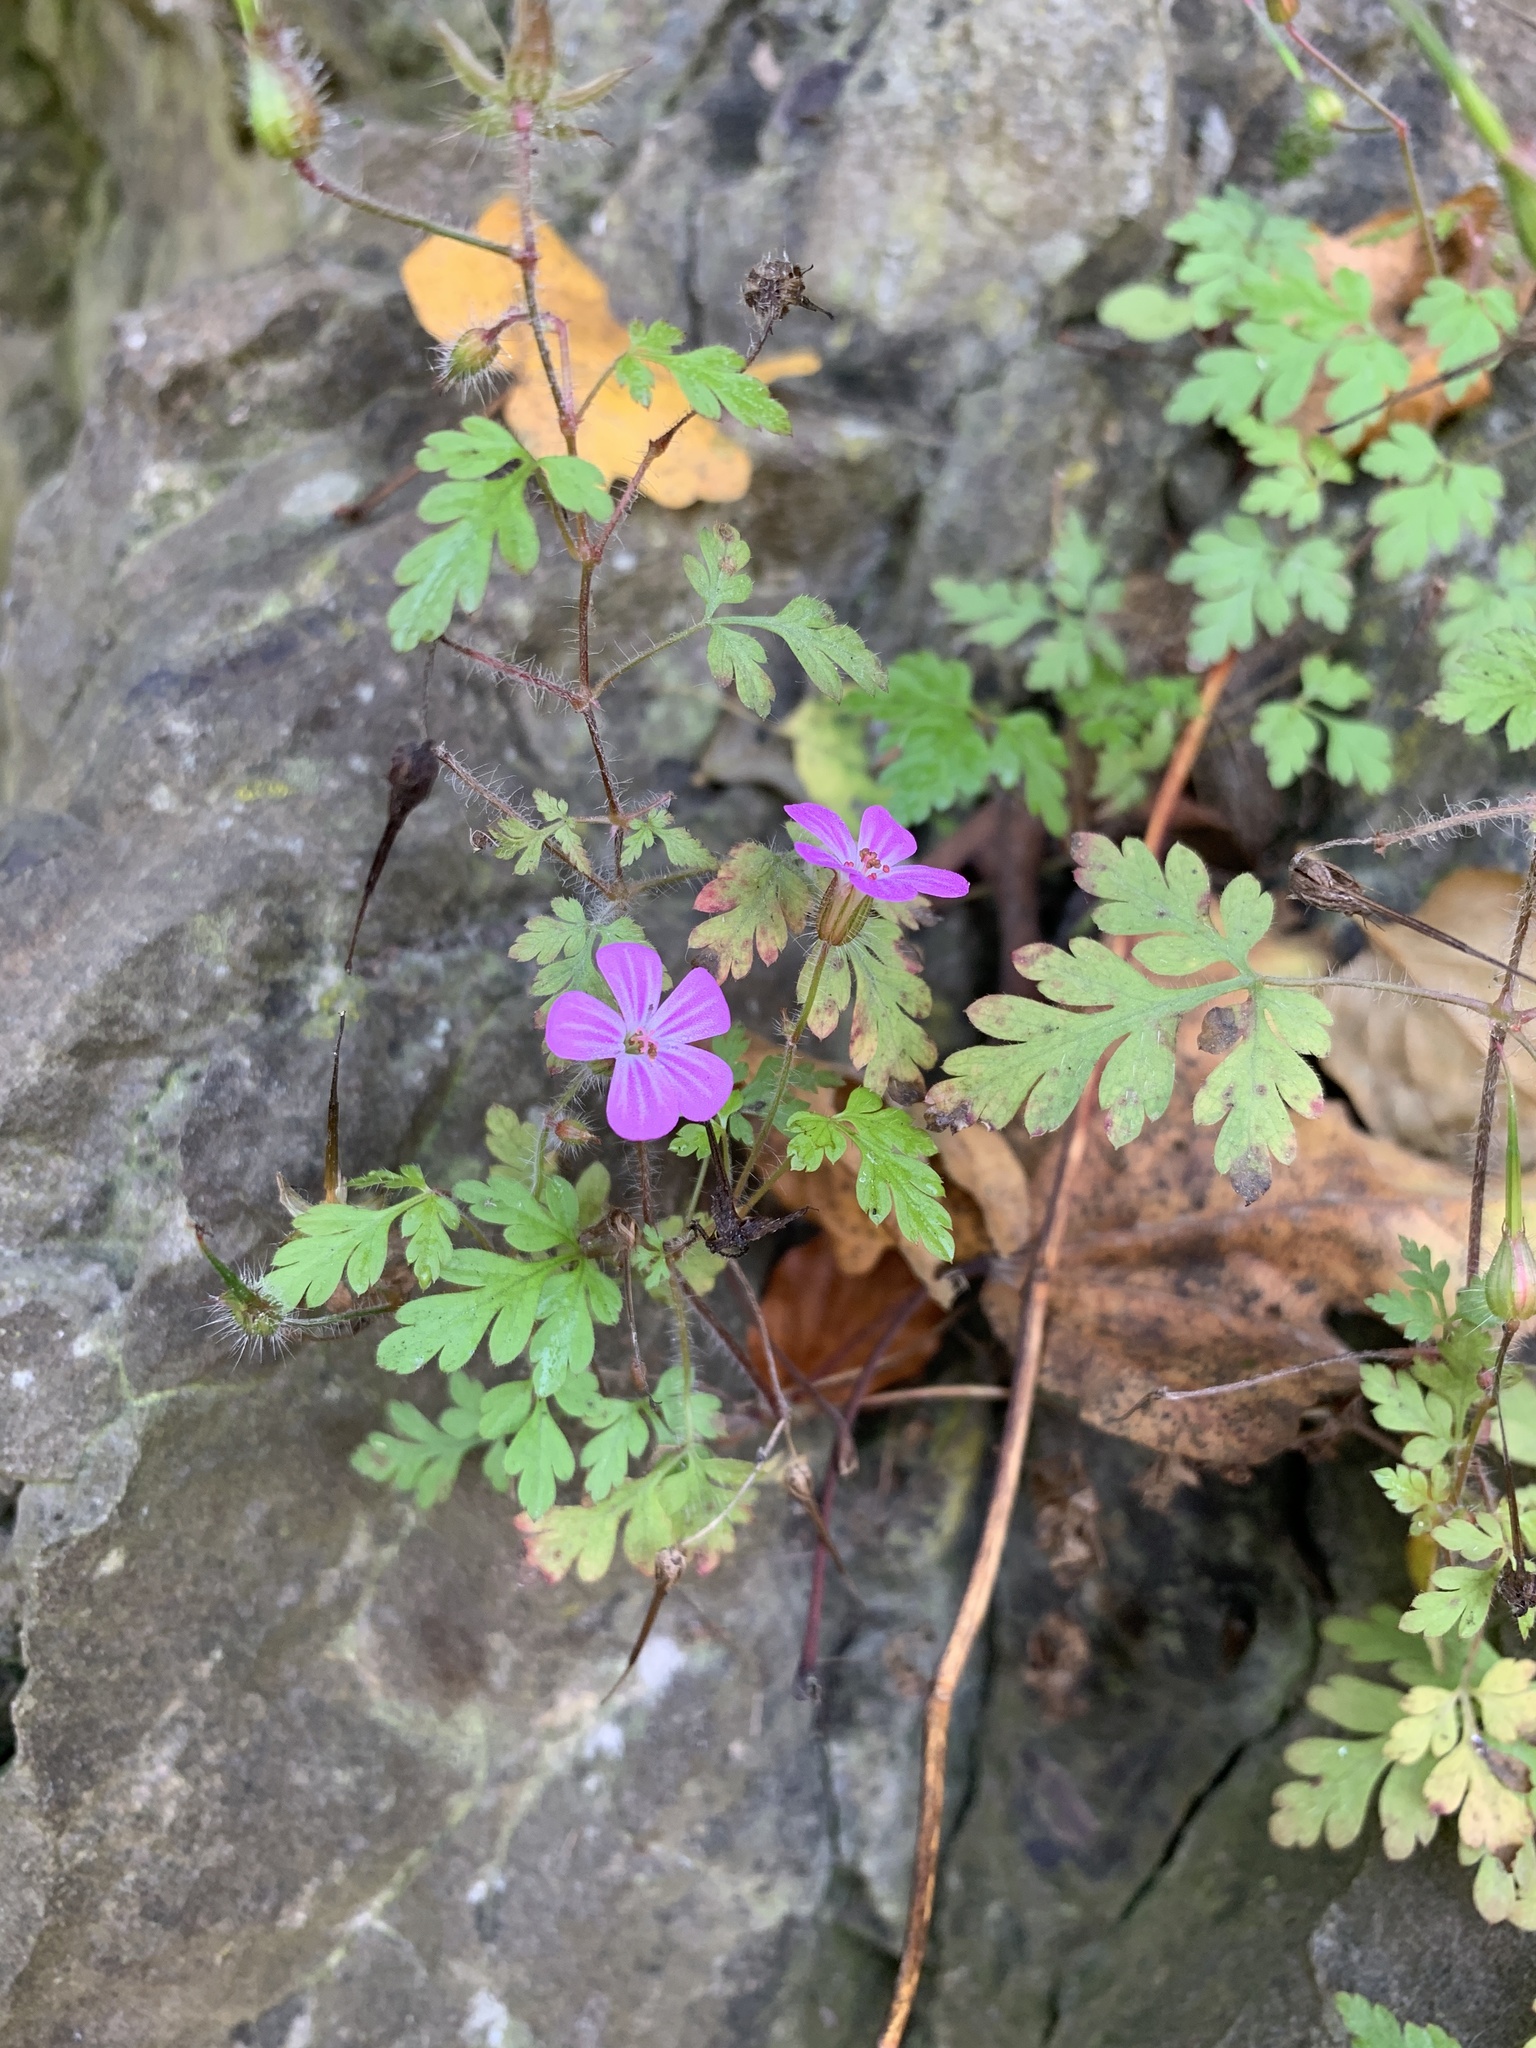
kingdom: Plantae
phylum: Tracheophyta
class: Magnoliopsida
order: Geraniales
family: Geraniaceae
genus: Geranium
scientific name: Geranium robertianum
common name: Herb-robert
